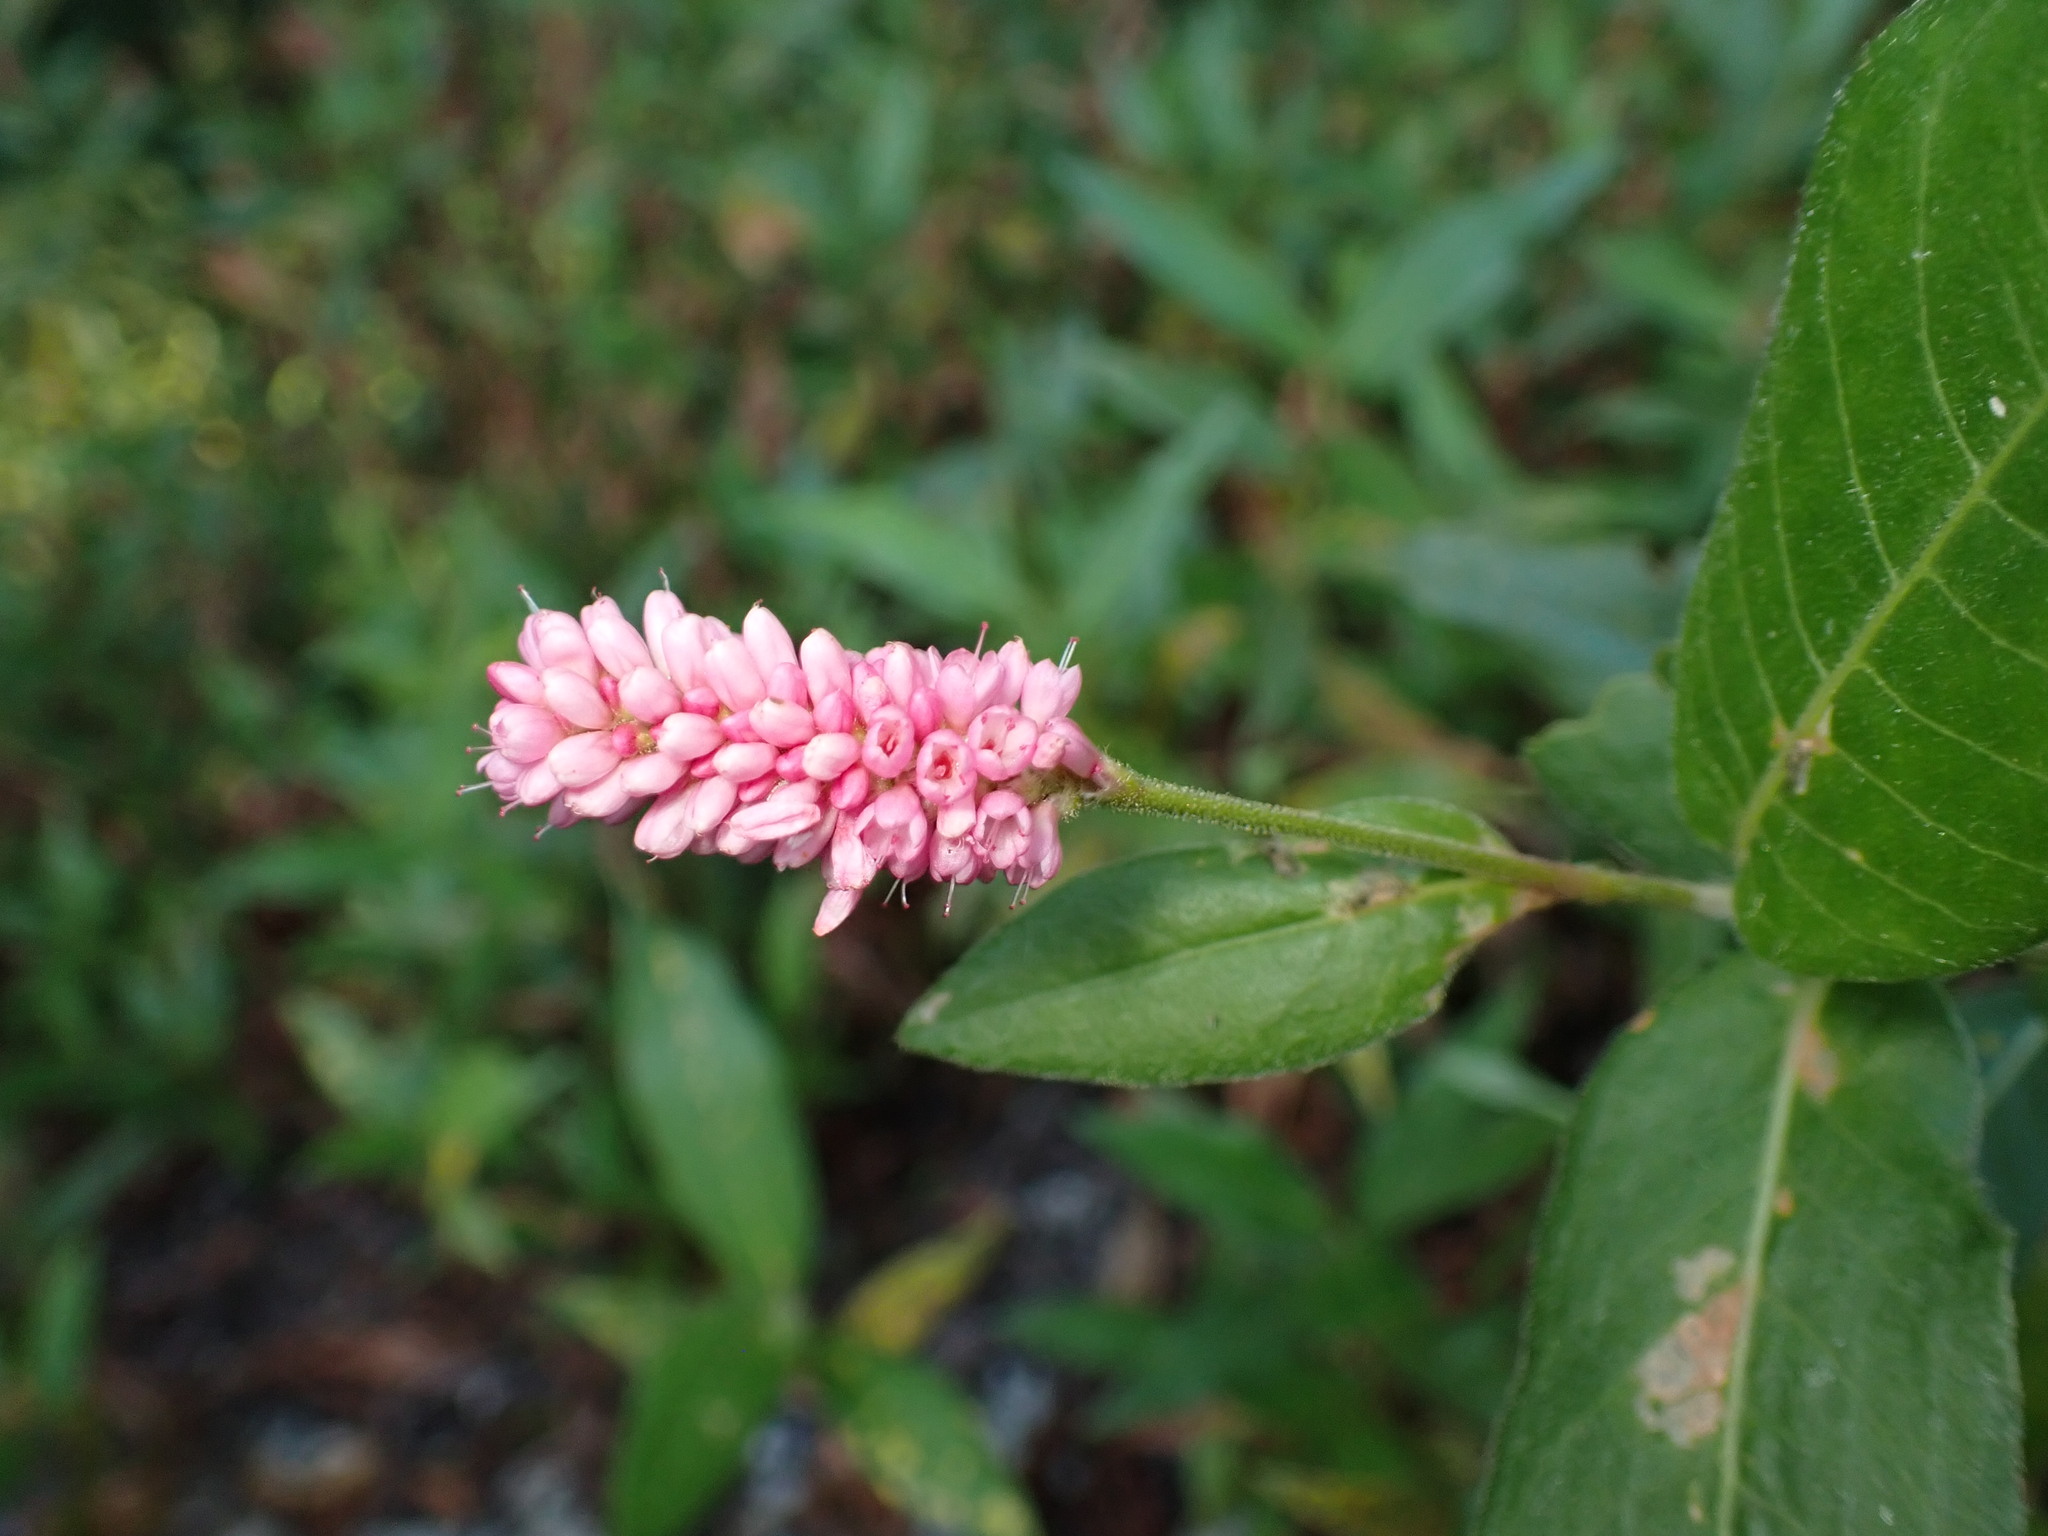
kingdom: Plantae
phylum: Tracheophyta
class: Magnoliopsida
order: Caryophyllales
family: Polygonaceae
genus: Persicaria
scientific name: Persicaria amphibia
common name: Amphibious bistort
